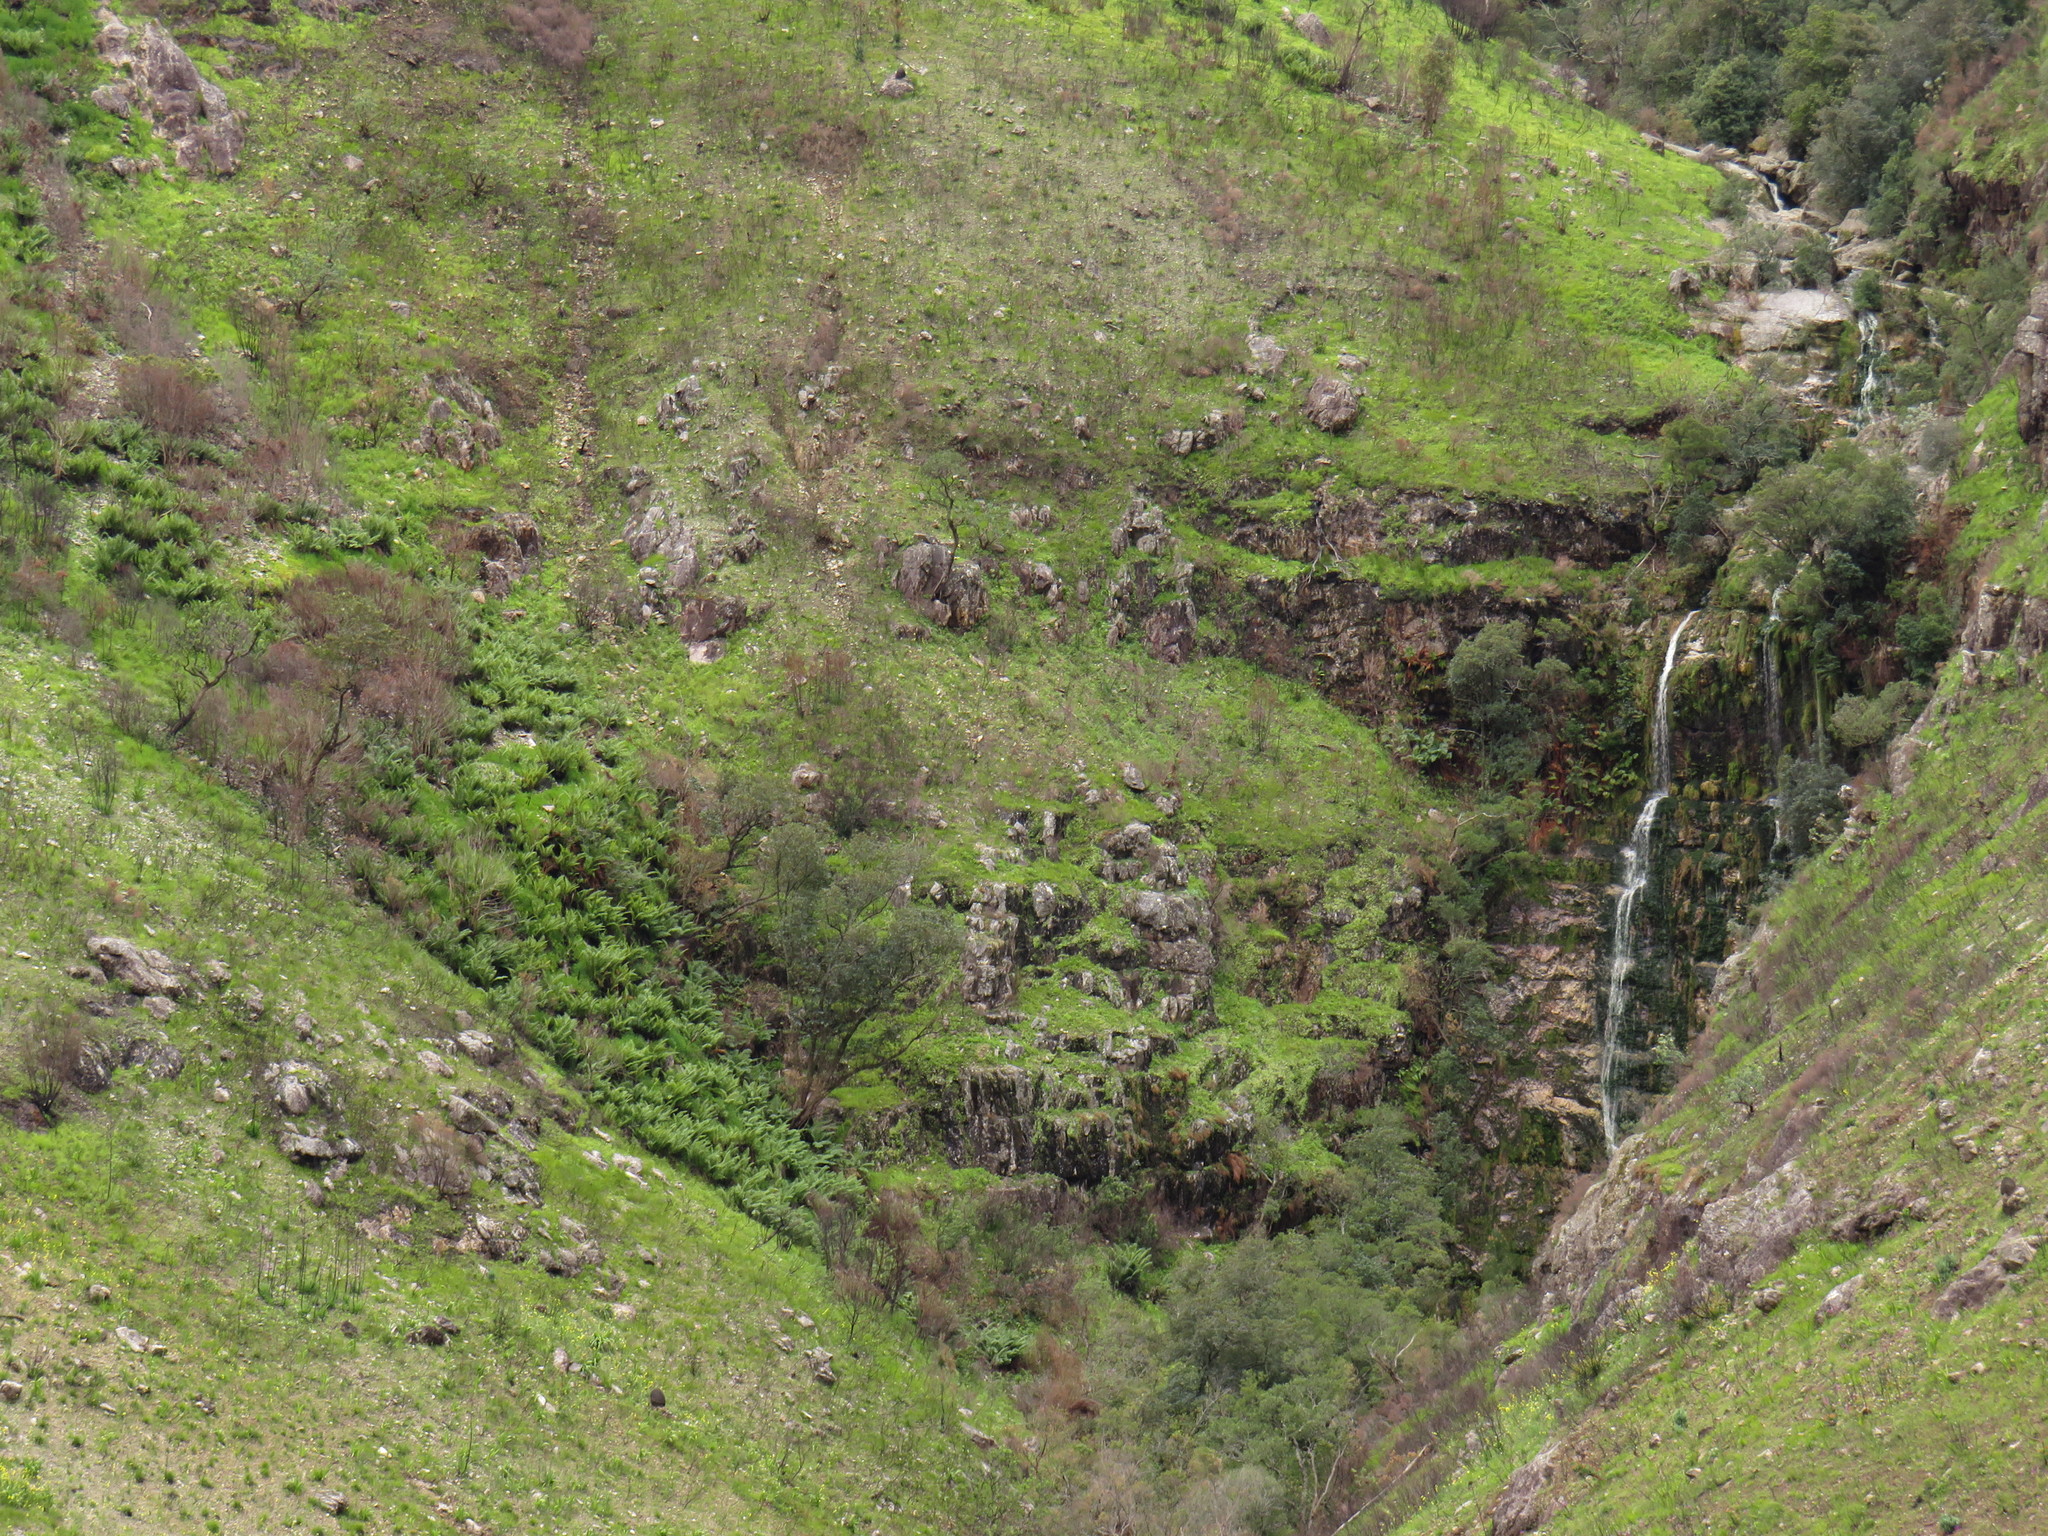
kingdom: Plantae
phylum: Tracheophyta
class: Polypodiopsida
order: Osmundales
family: Osmundaceae
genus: Todea
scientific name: Todea barbara
